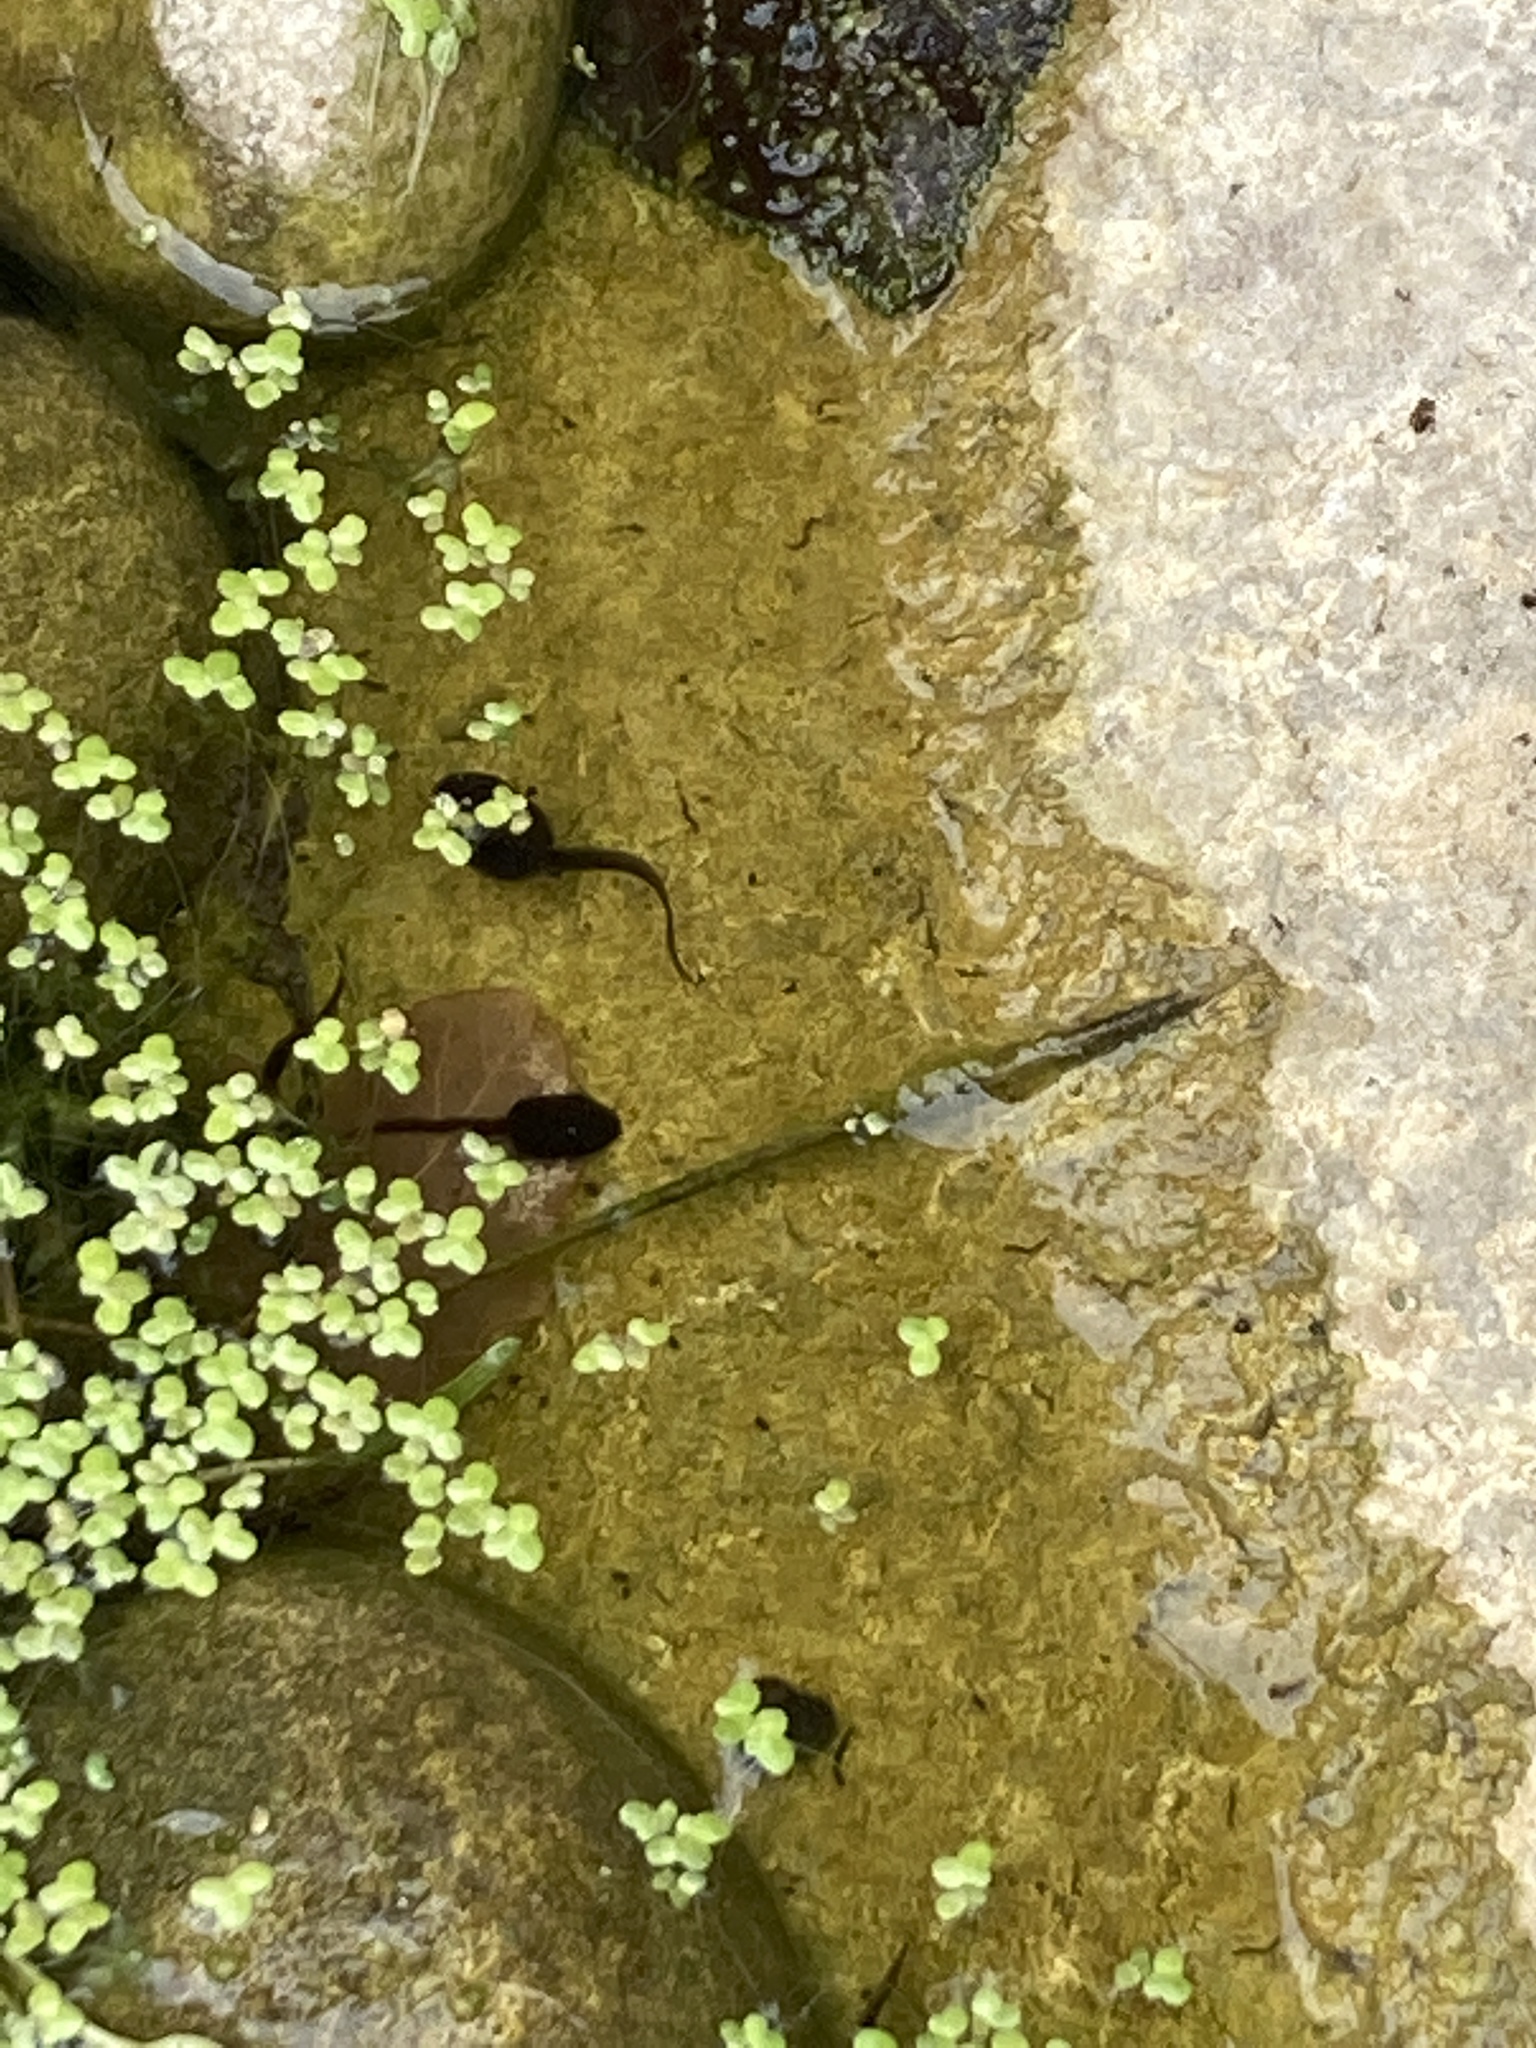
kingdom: Animalia
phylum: Chordata
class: Amphibia
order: Anura
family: Ranidae
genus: Rana
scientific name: Rana temporaria
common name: Common frog
